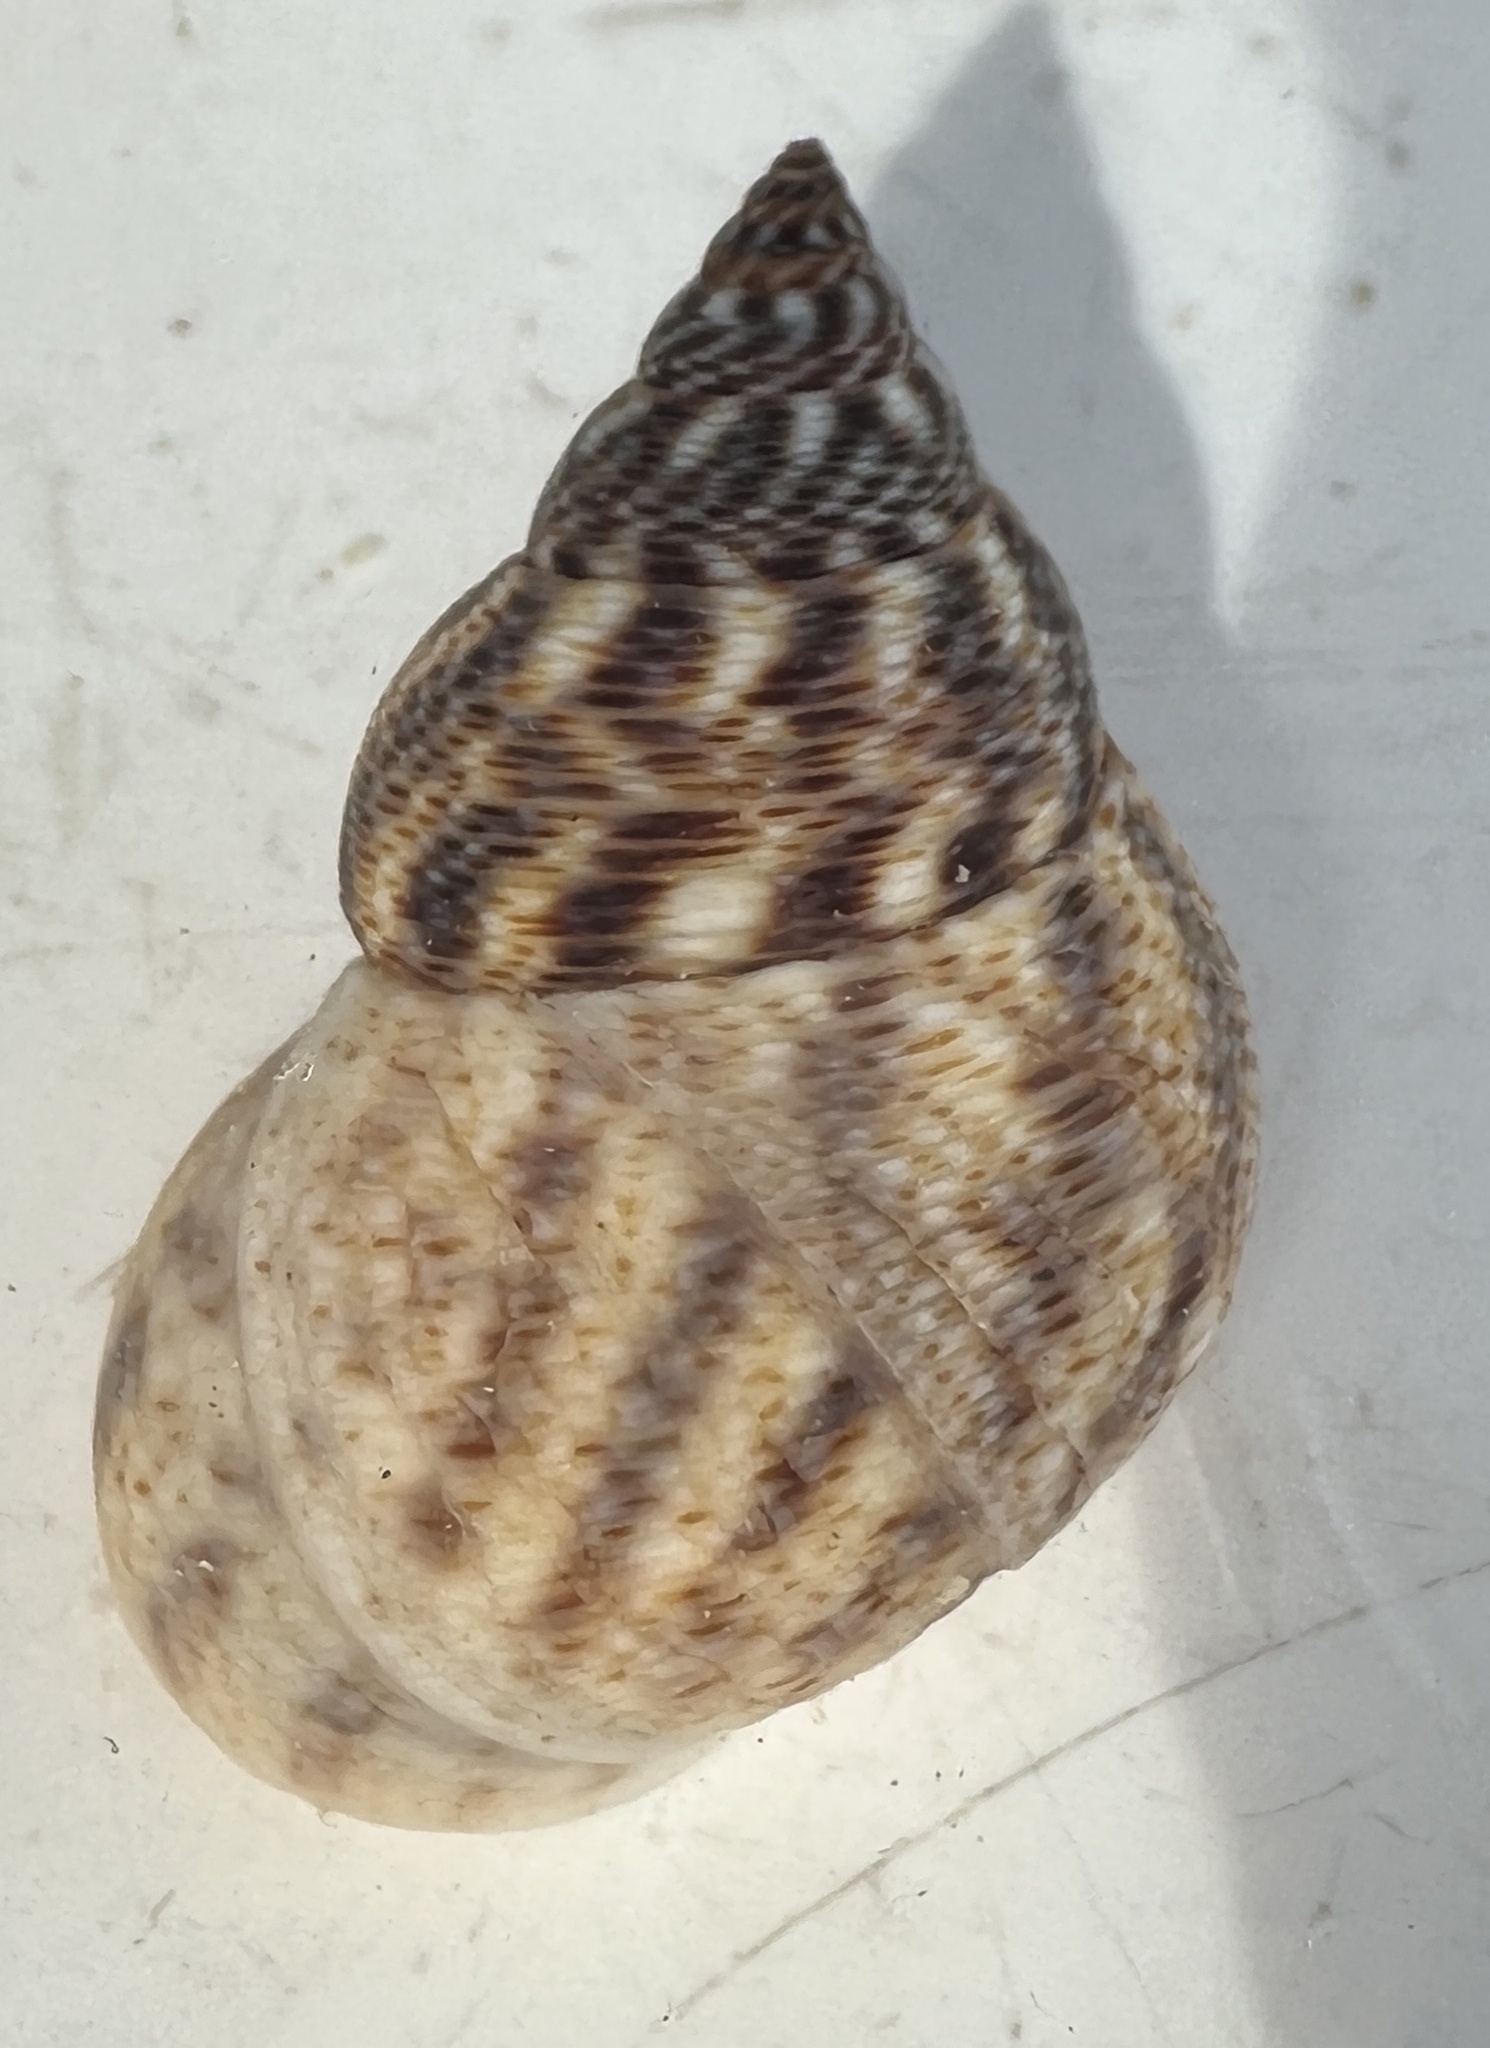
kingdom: Animalia
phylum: Mollusca
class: Gastropoda
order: Littorinimorpha
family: Littorinidae
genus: Littoraria
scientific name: Littoraria angulifera
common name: Mangrove periwinkle
